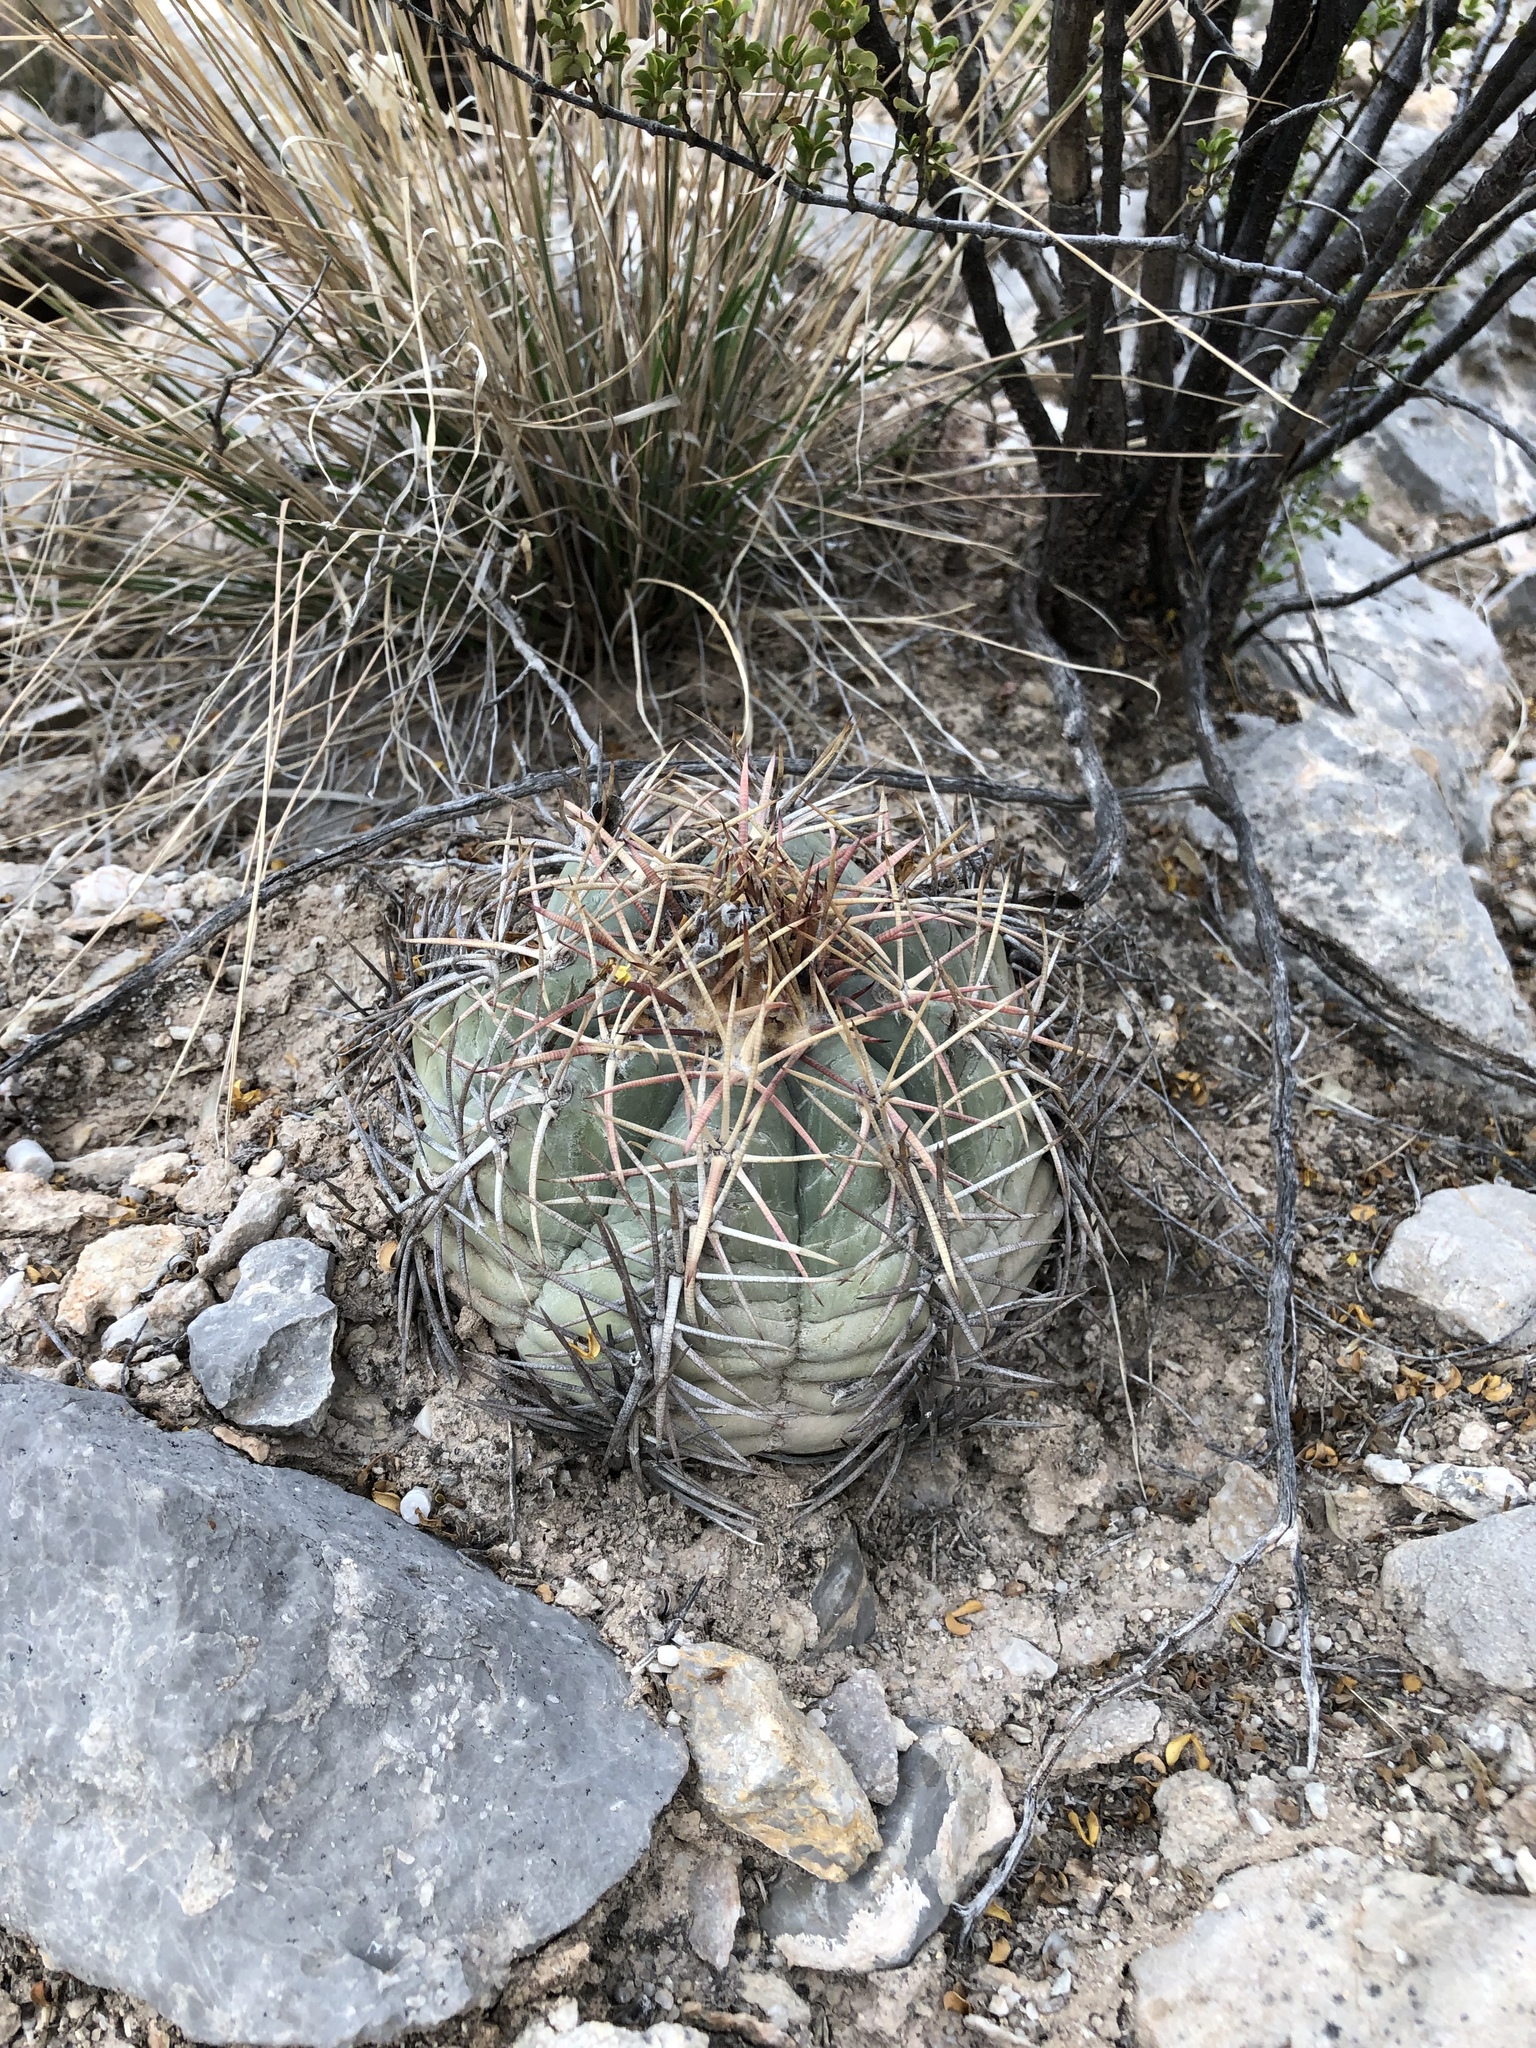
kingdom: Plantae
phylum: Tracheophyta
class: Magnoliopsida
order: Caryophyllales
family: Cactaceae
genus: Echinocactus
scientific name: Echinocactus horizonthalonius
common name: Devilshead
